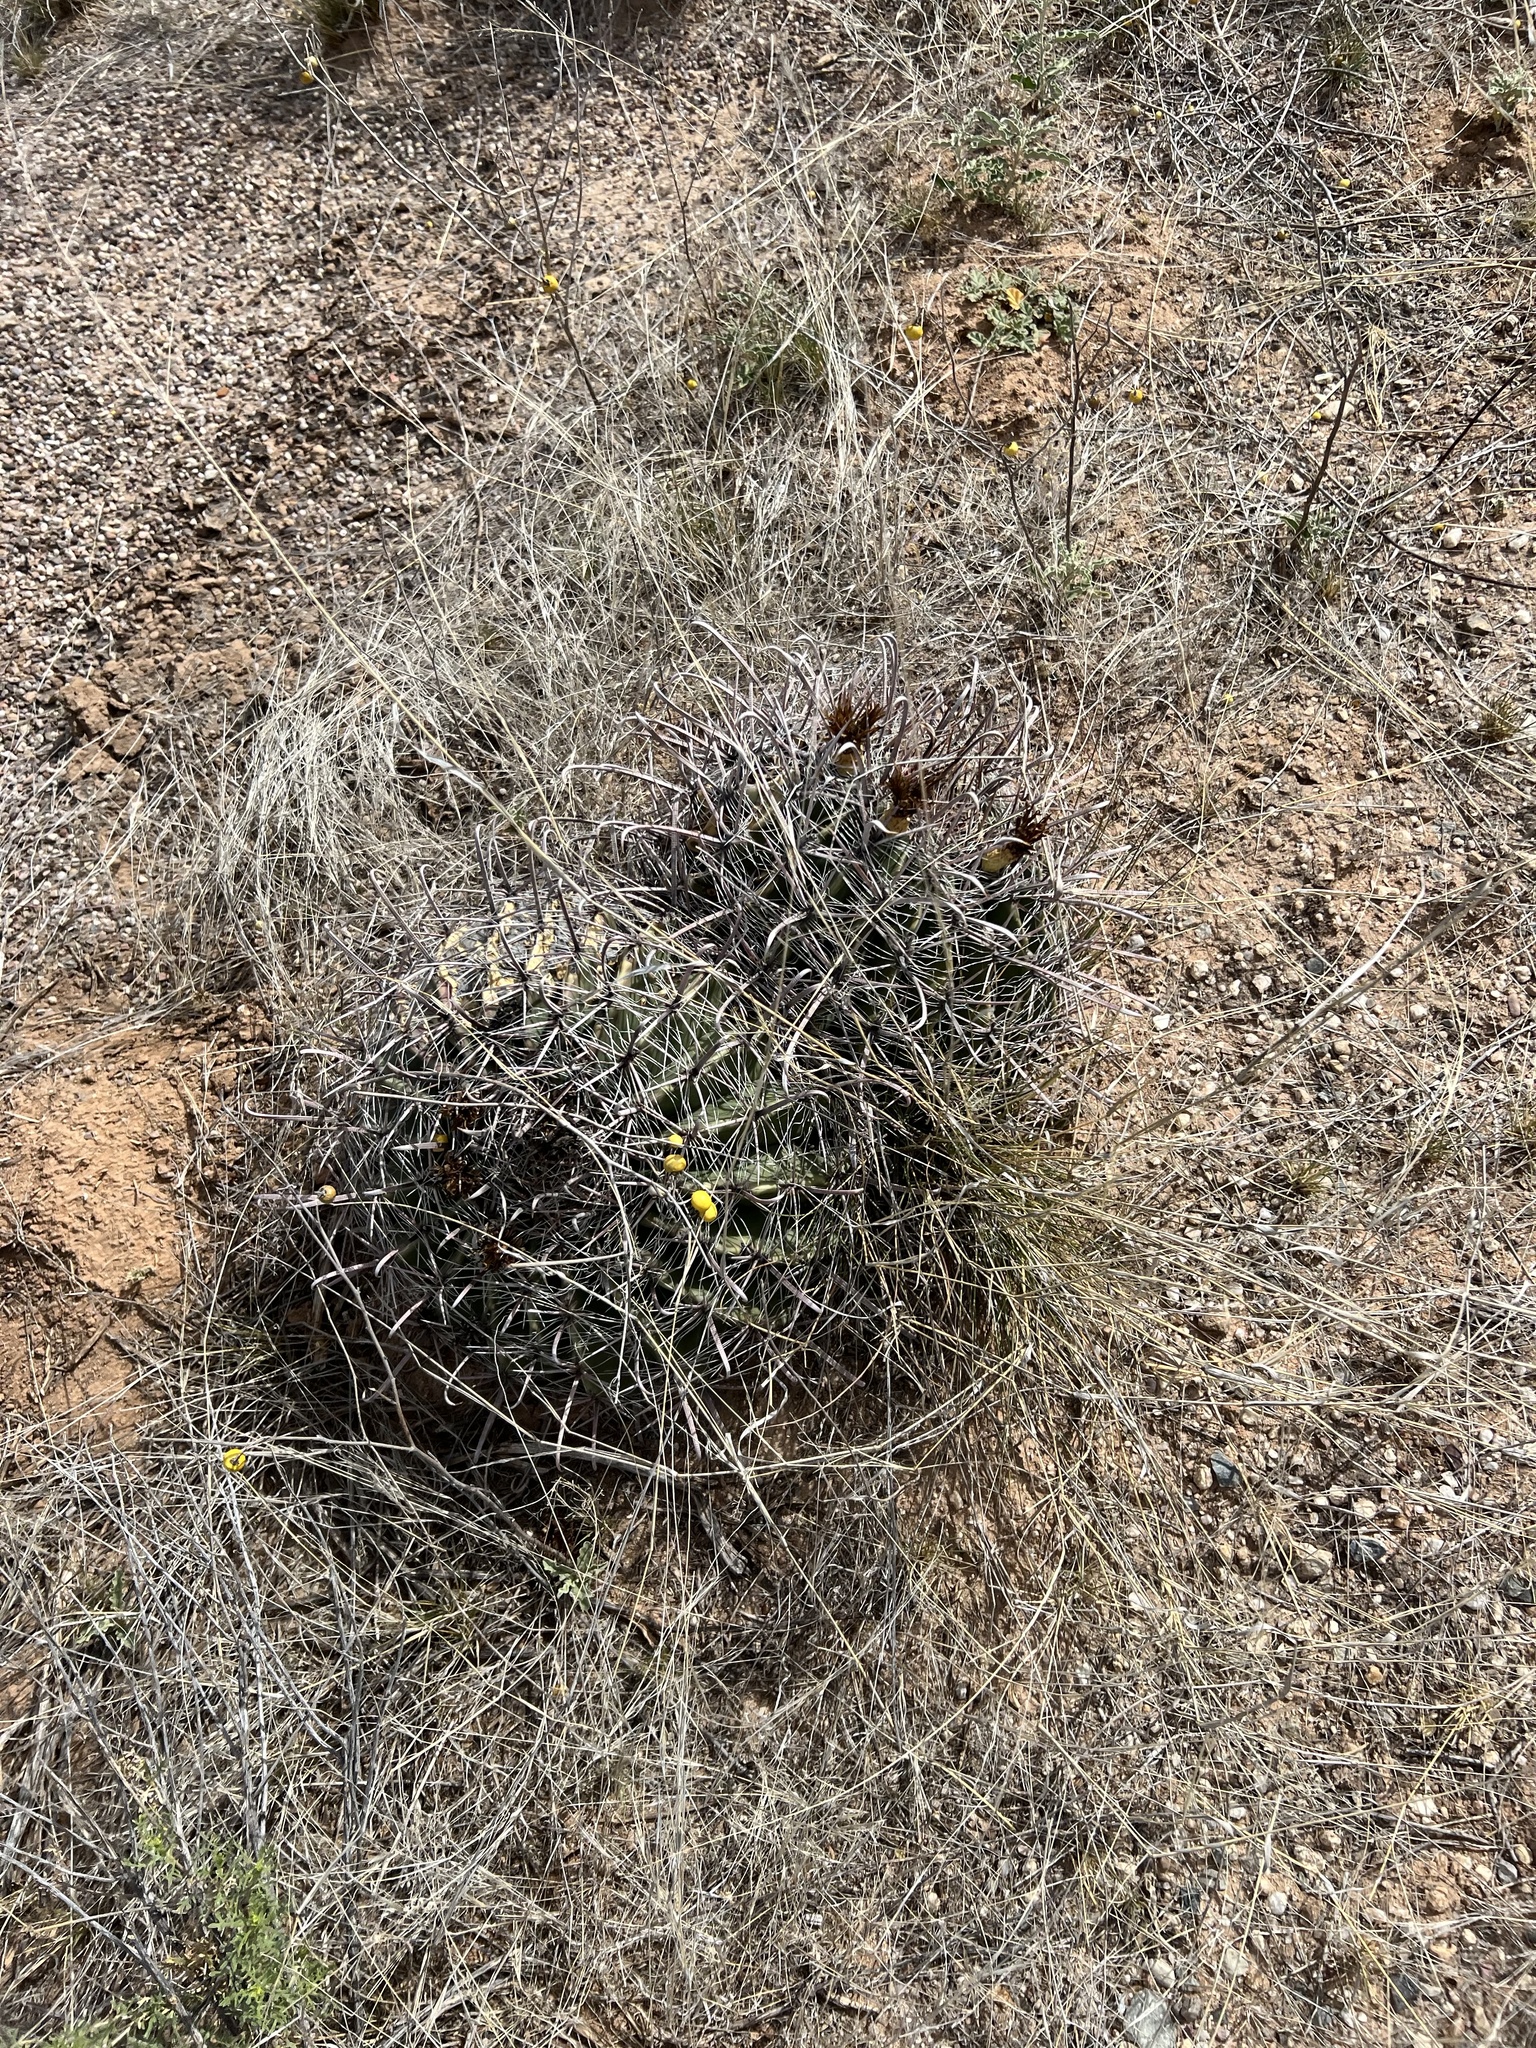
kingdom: Plantae
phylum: Tracheophyta
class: Magnoliopsida
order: Caryophyllales
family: Cactaceae
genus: Ferocactus
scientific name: Ferocactus wislizeni
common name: Candy barrel cactus
